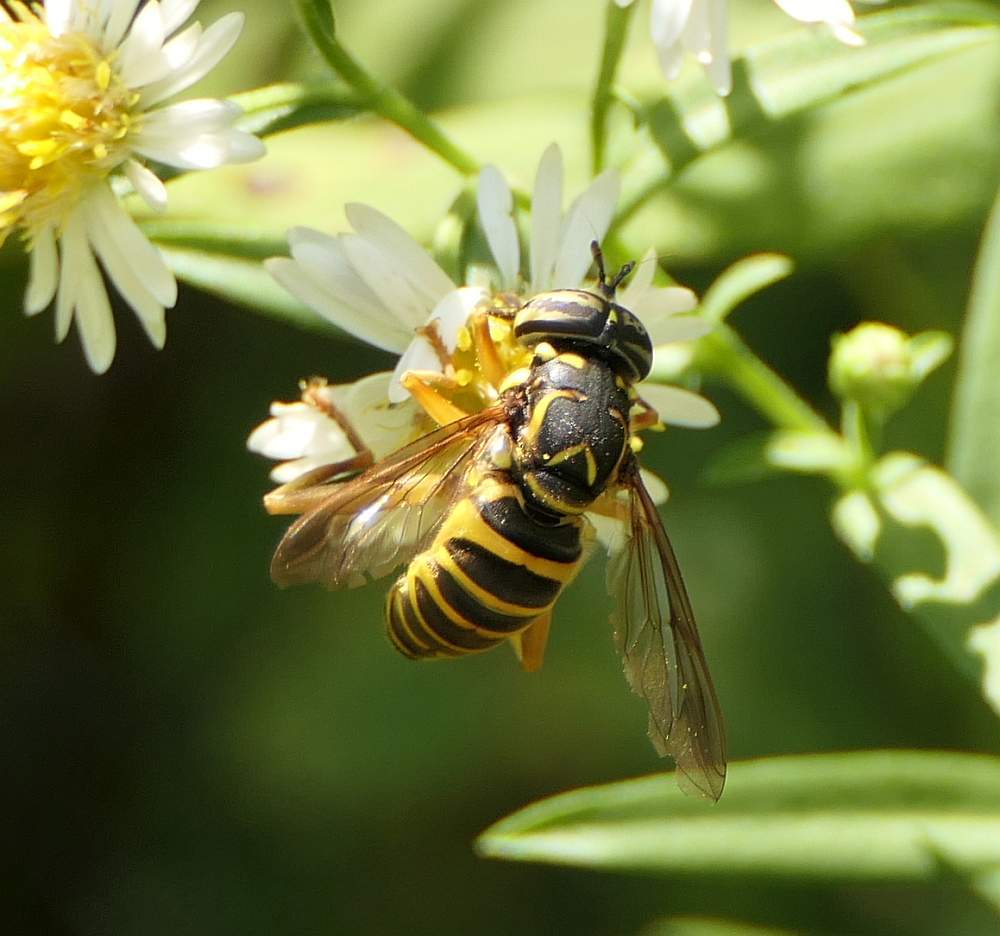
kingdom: Animalia
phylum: Arthropoda
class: Insecta
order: Diptera
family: Syrphidae
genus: Spilomyia
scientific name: Spilomyia longicornis
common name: Eastern hornet fly
